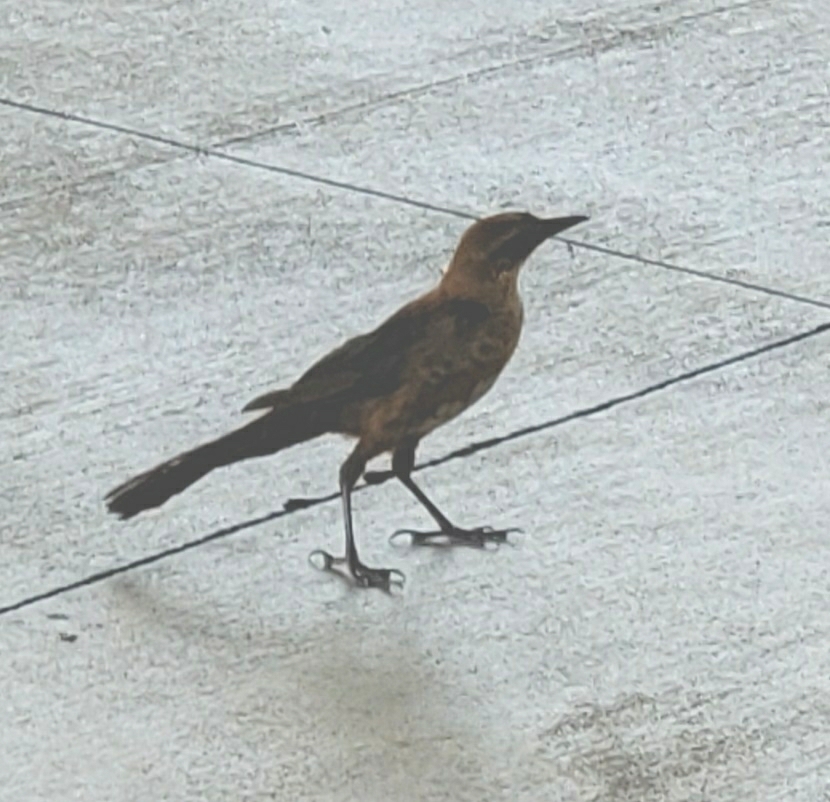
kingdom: Animalia
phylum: Chordata
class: Aves
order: Passeriformes
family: Icteridae
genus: Quiscalus
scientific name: Quiscalus major
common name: Boat-tailed grackle
